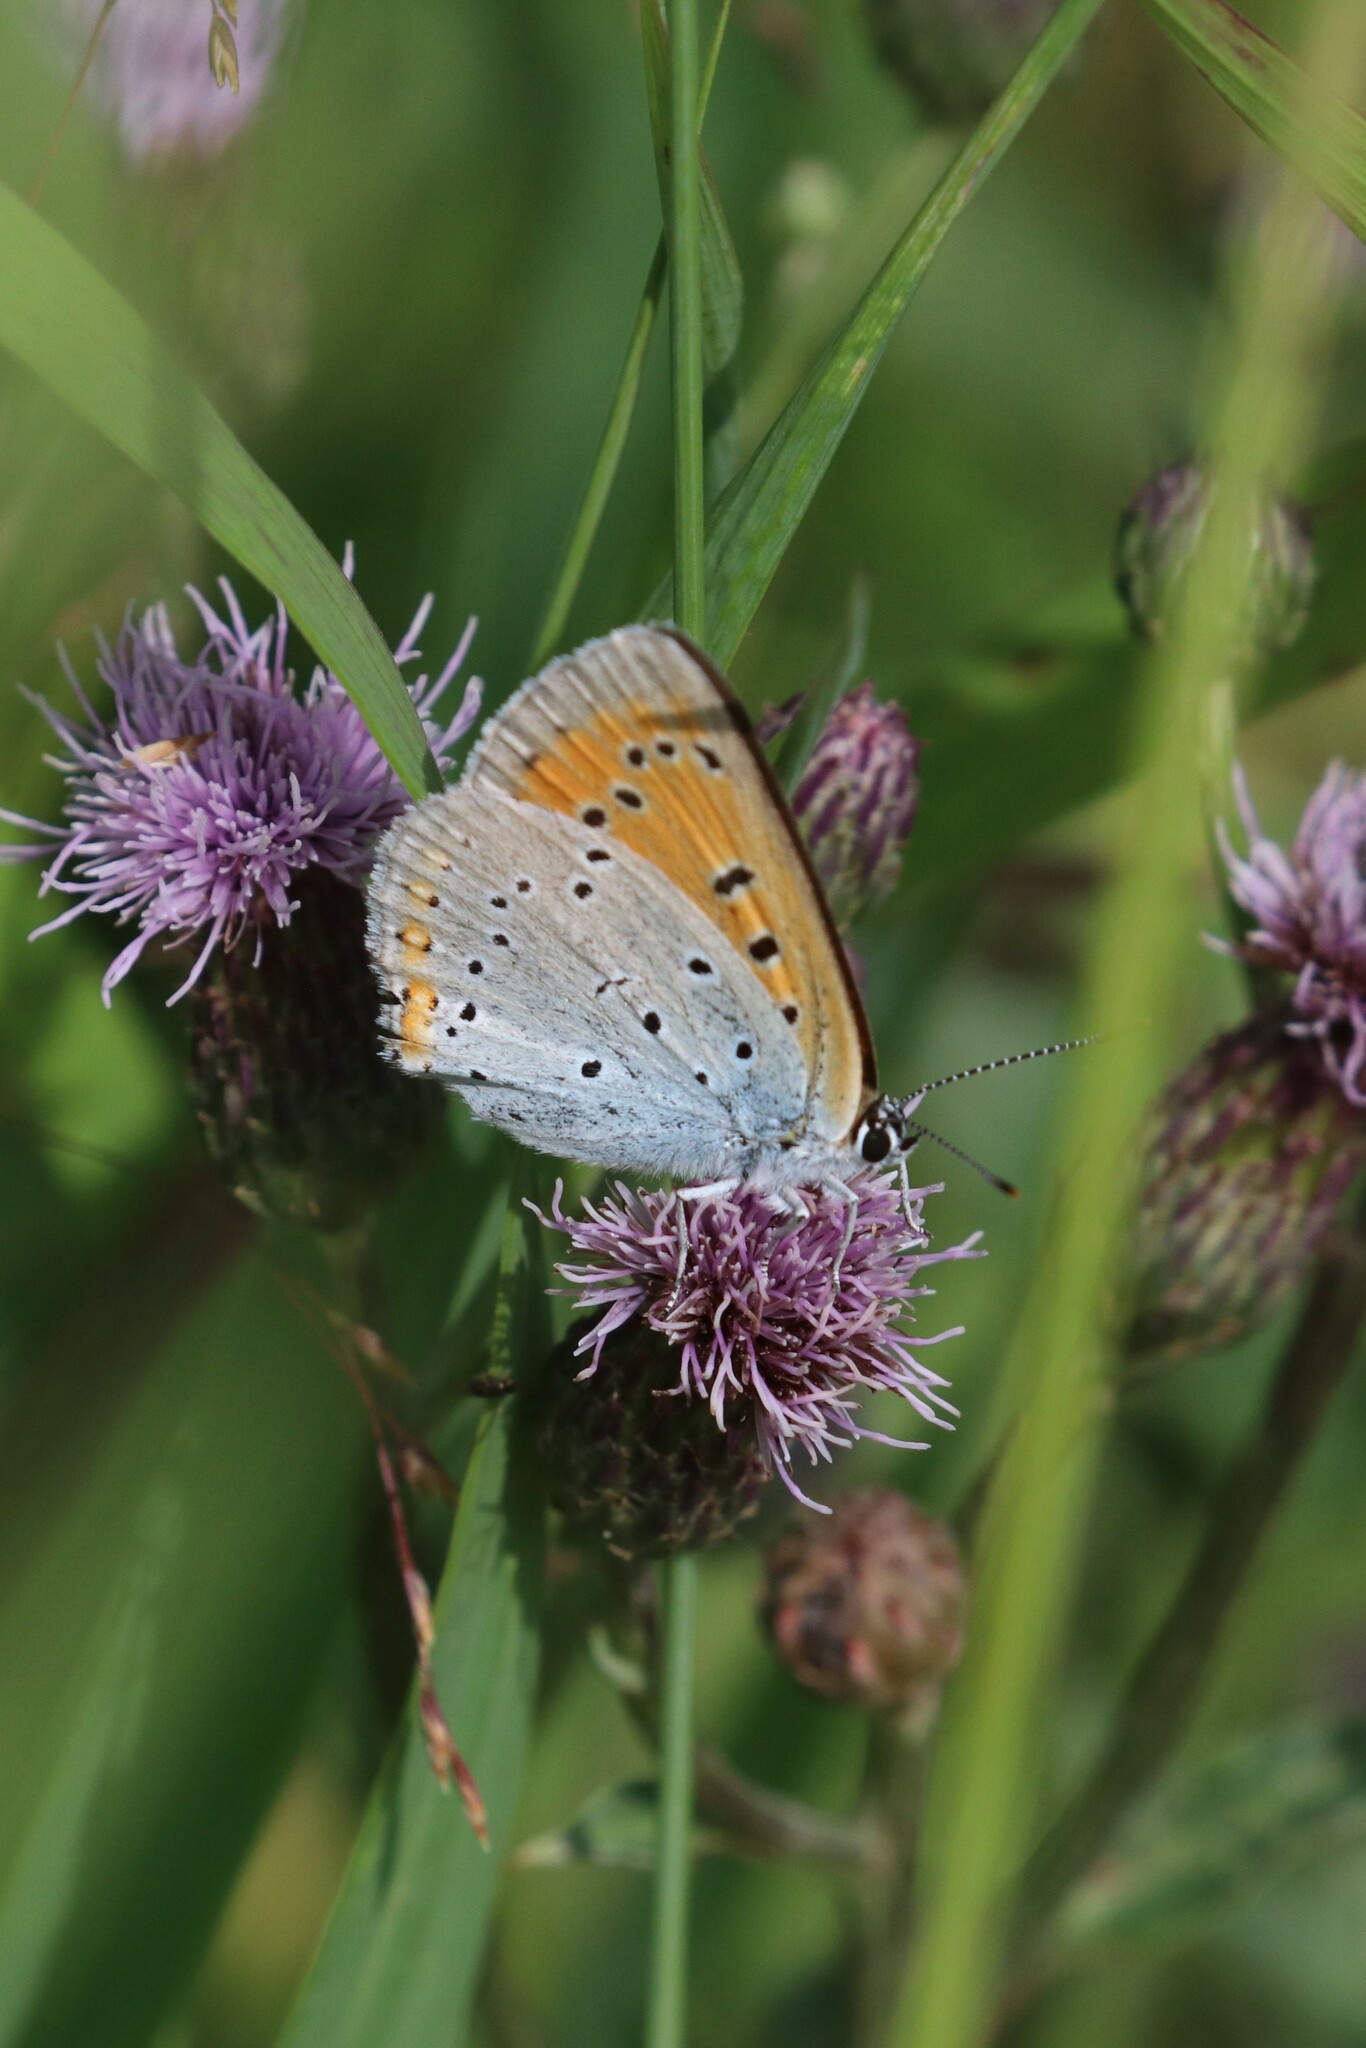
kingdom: Animalia
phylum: Arthropoda
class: Insecta
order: Lepidoptera
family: Lycaenidae
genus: Lycaena
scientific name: Lycaena dispar
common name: Large copper
